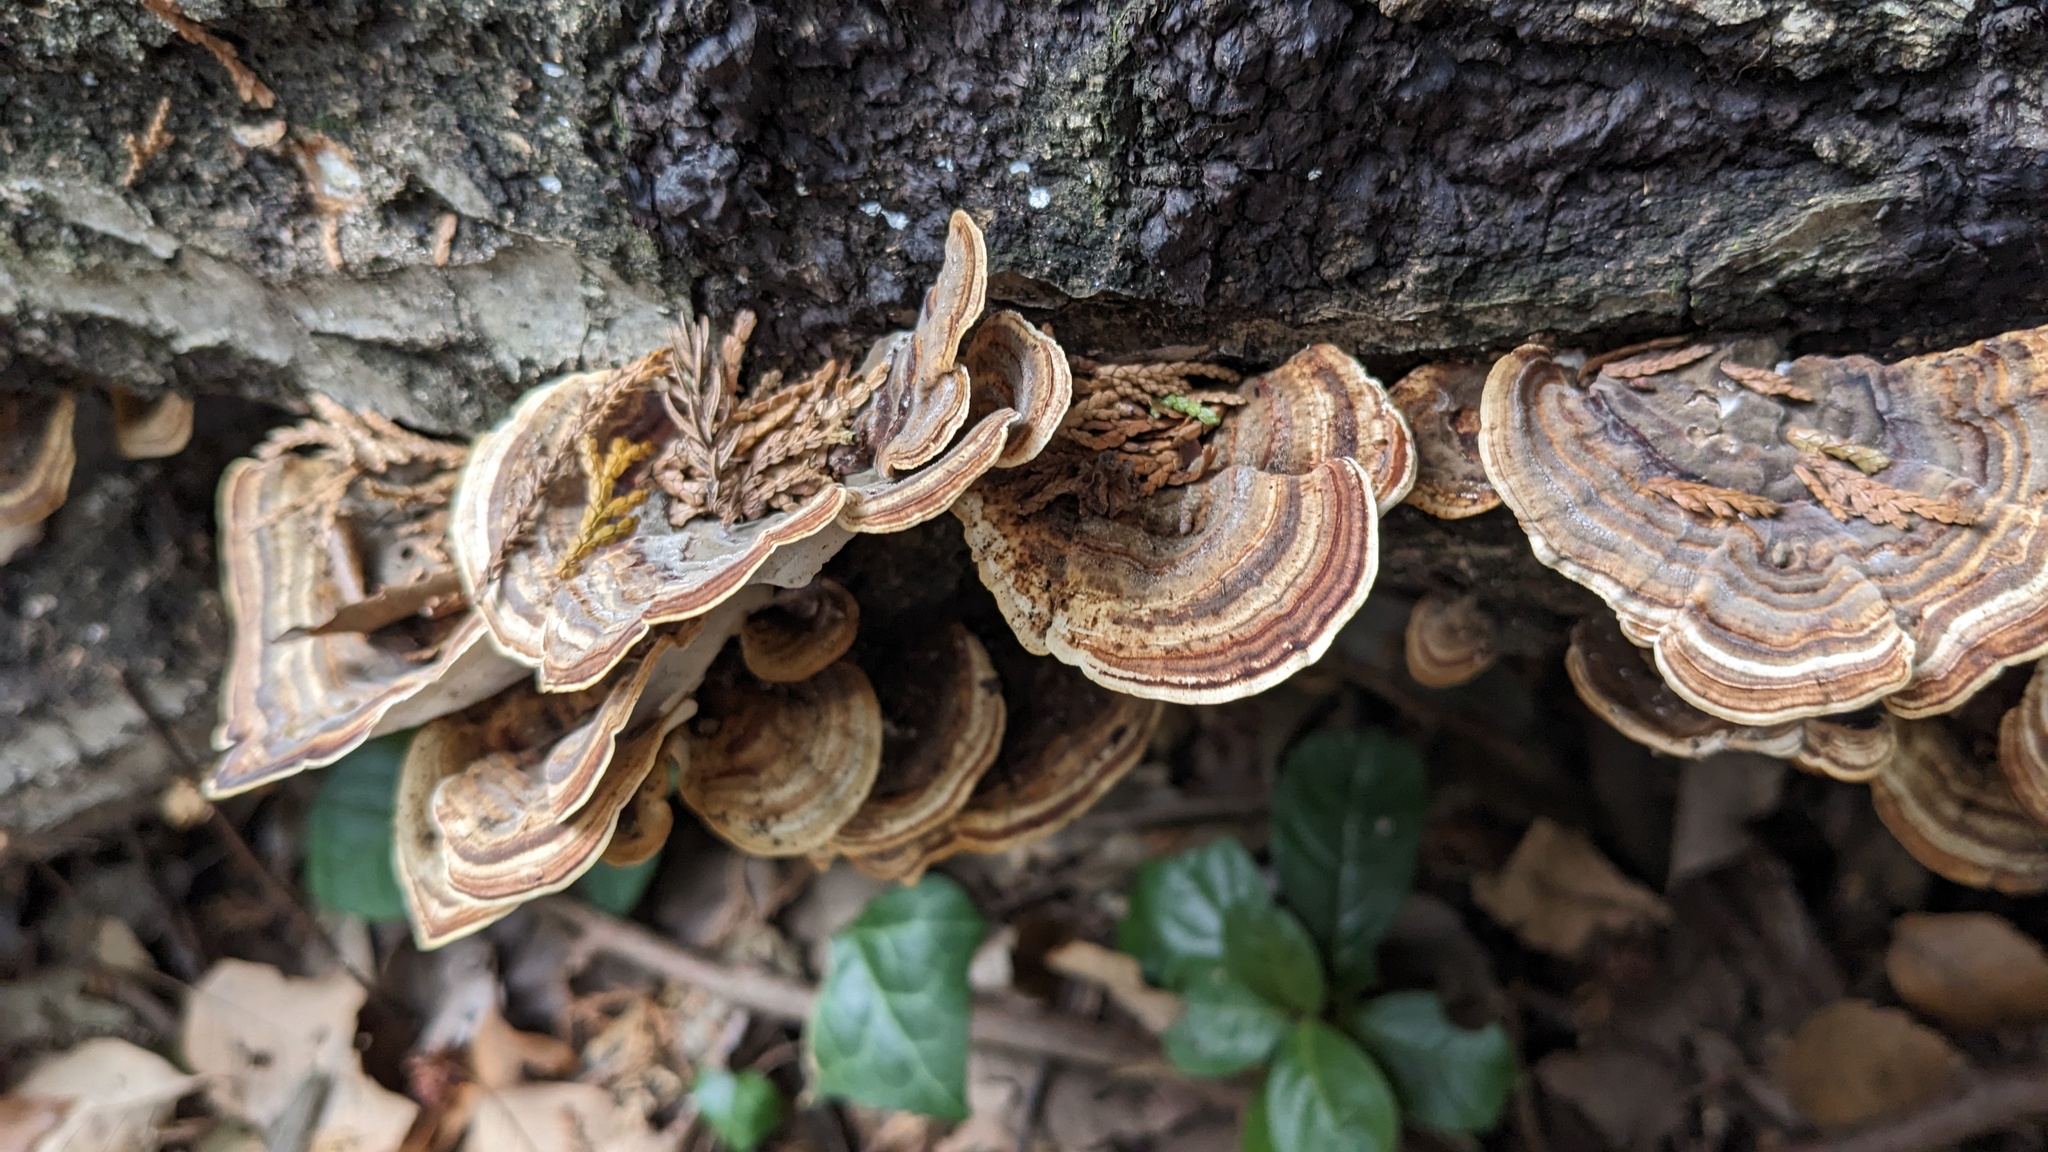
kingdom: Fungi
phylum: Basidiomycota
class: Agaricomycetes
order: Polyporales
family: Polyporaceae
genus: Microporus
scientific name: Microporus affinis
